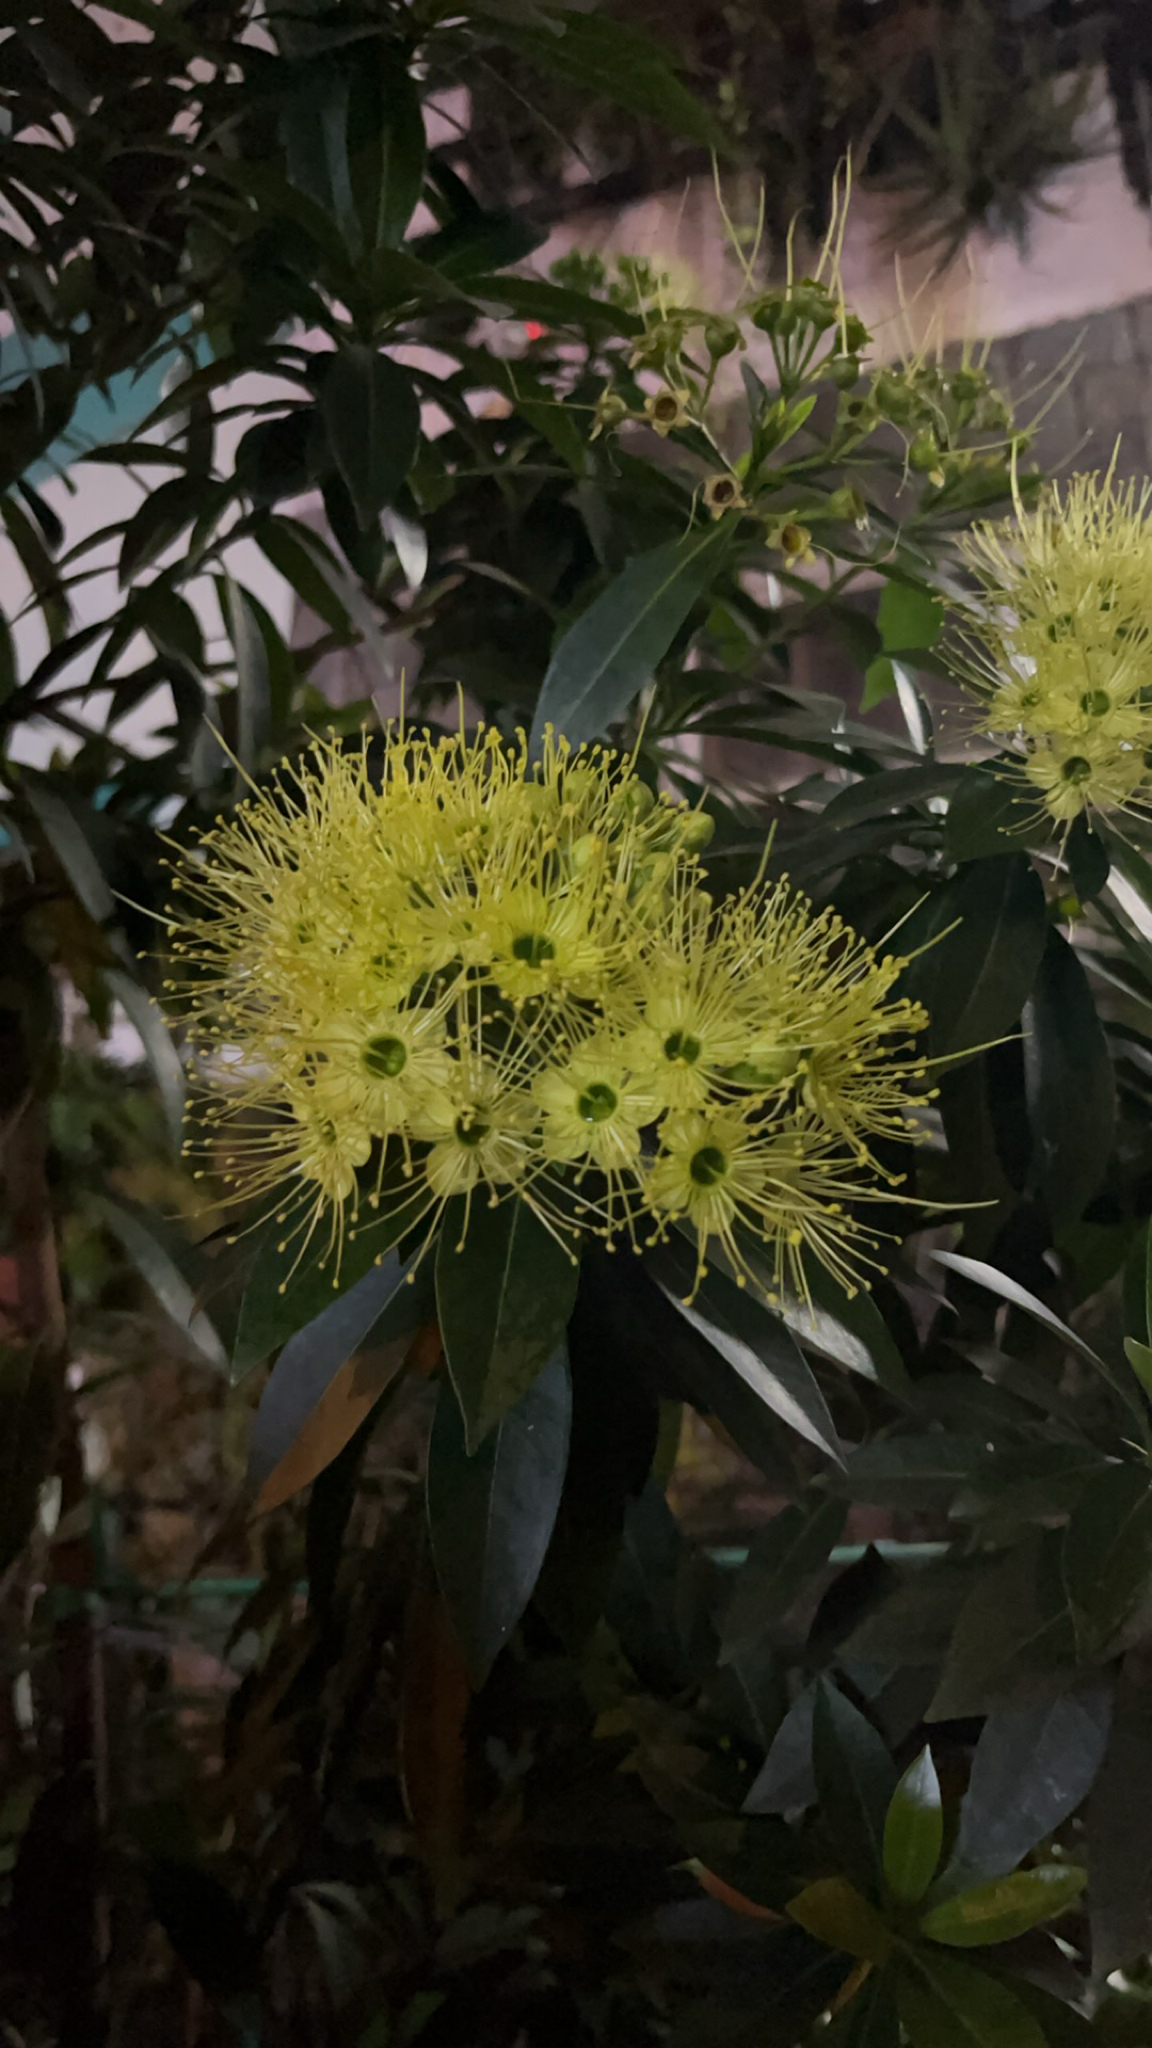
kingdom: Plantae
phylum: Tracheophyta
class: Magnoliopsida
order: Myrtales
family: Myrtaceae
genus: Xanthostemon
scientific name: Xanthostemon chrysanthus
